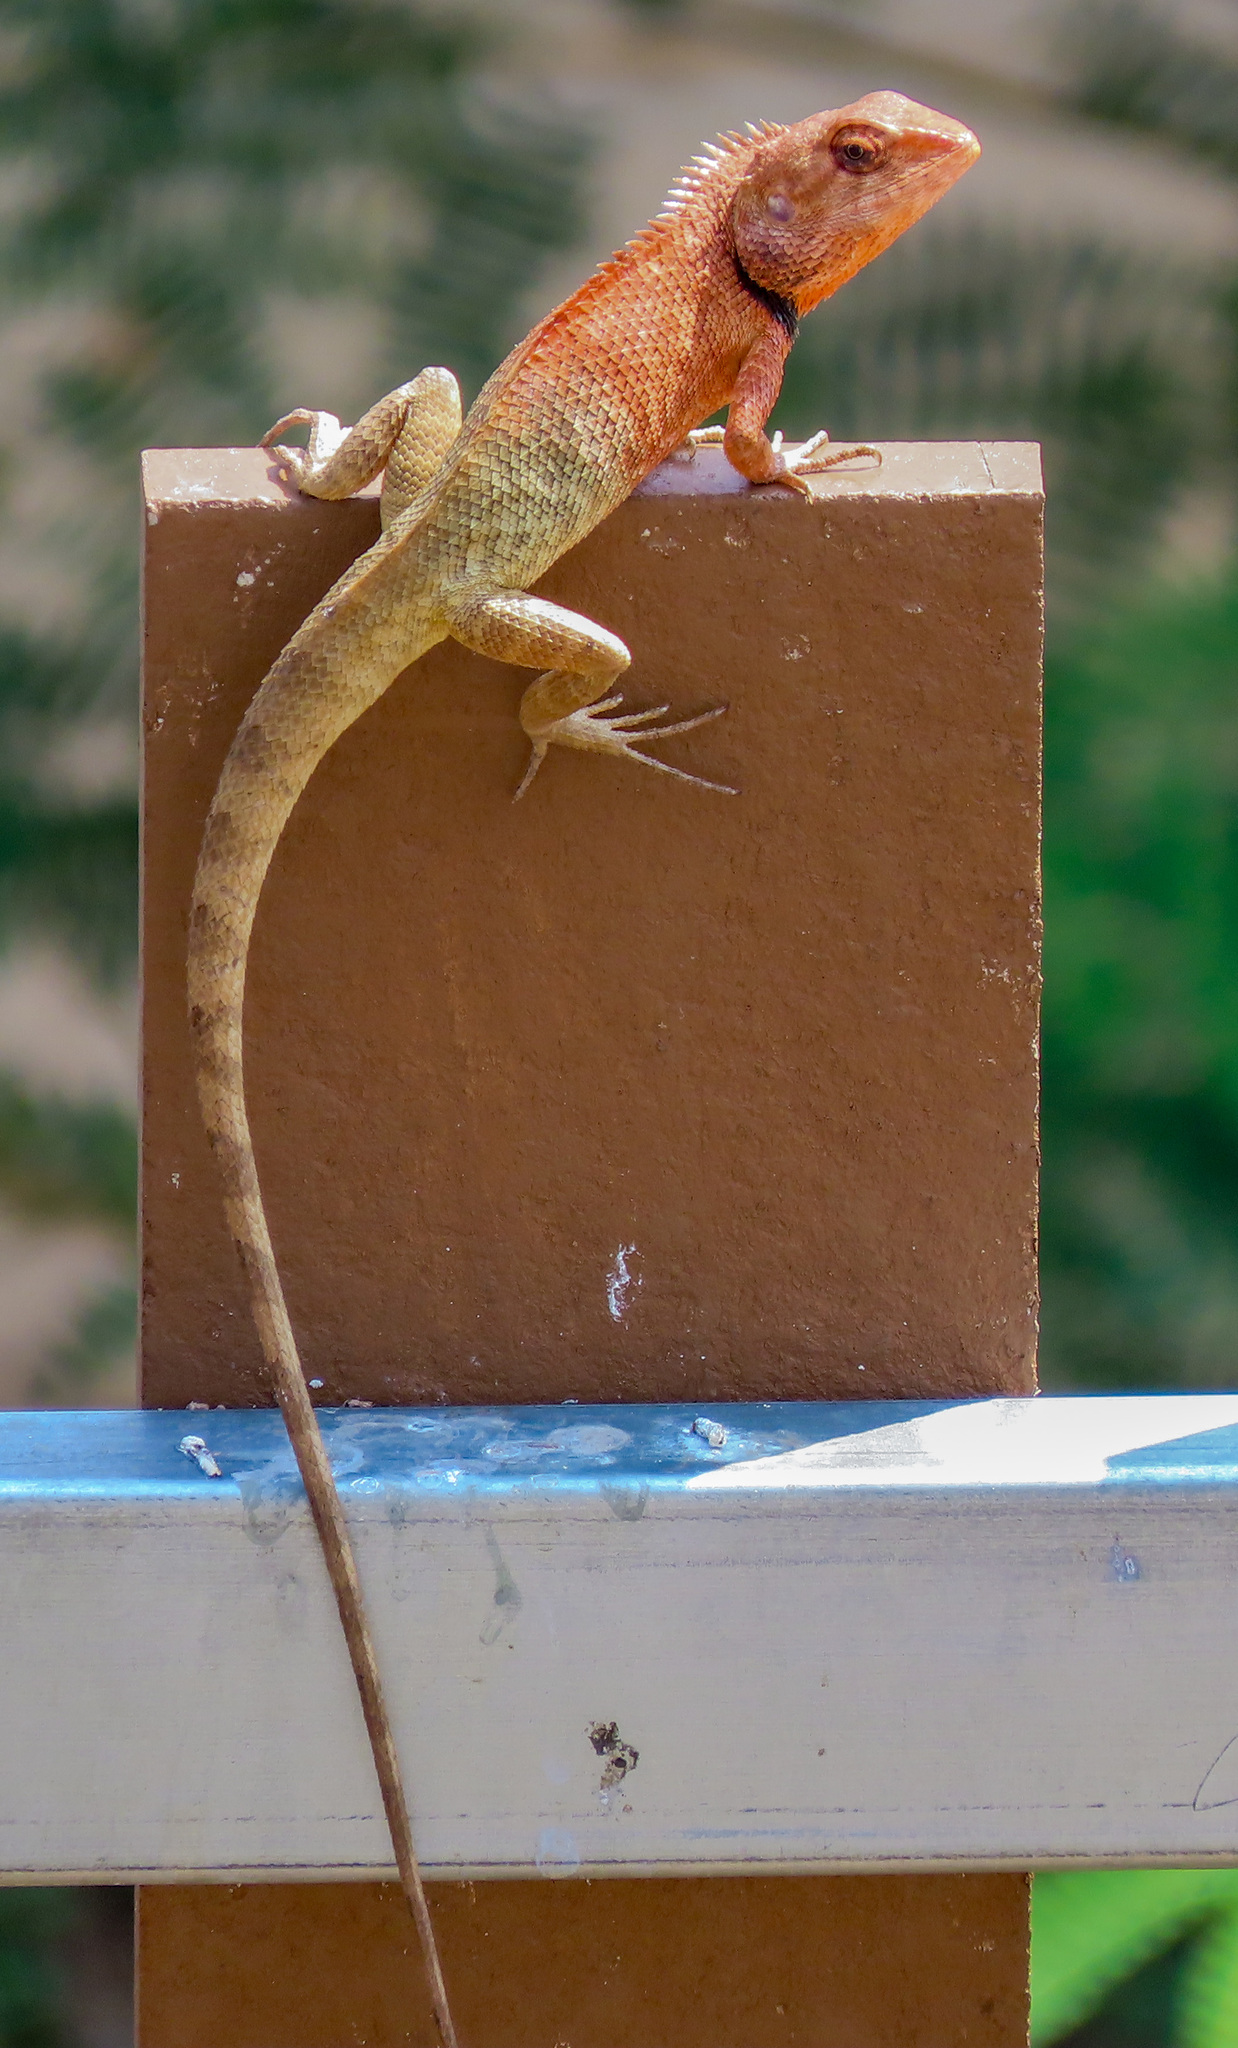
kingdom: Animalia
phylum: Chordata
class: Squamata
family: Agamidae
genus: Calotes
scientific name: Calotes versicolor
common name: Oriental garden lizard
